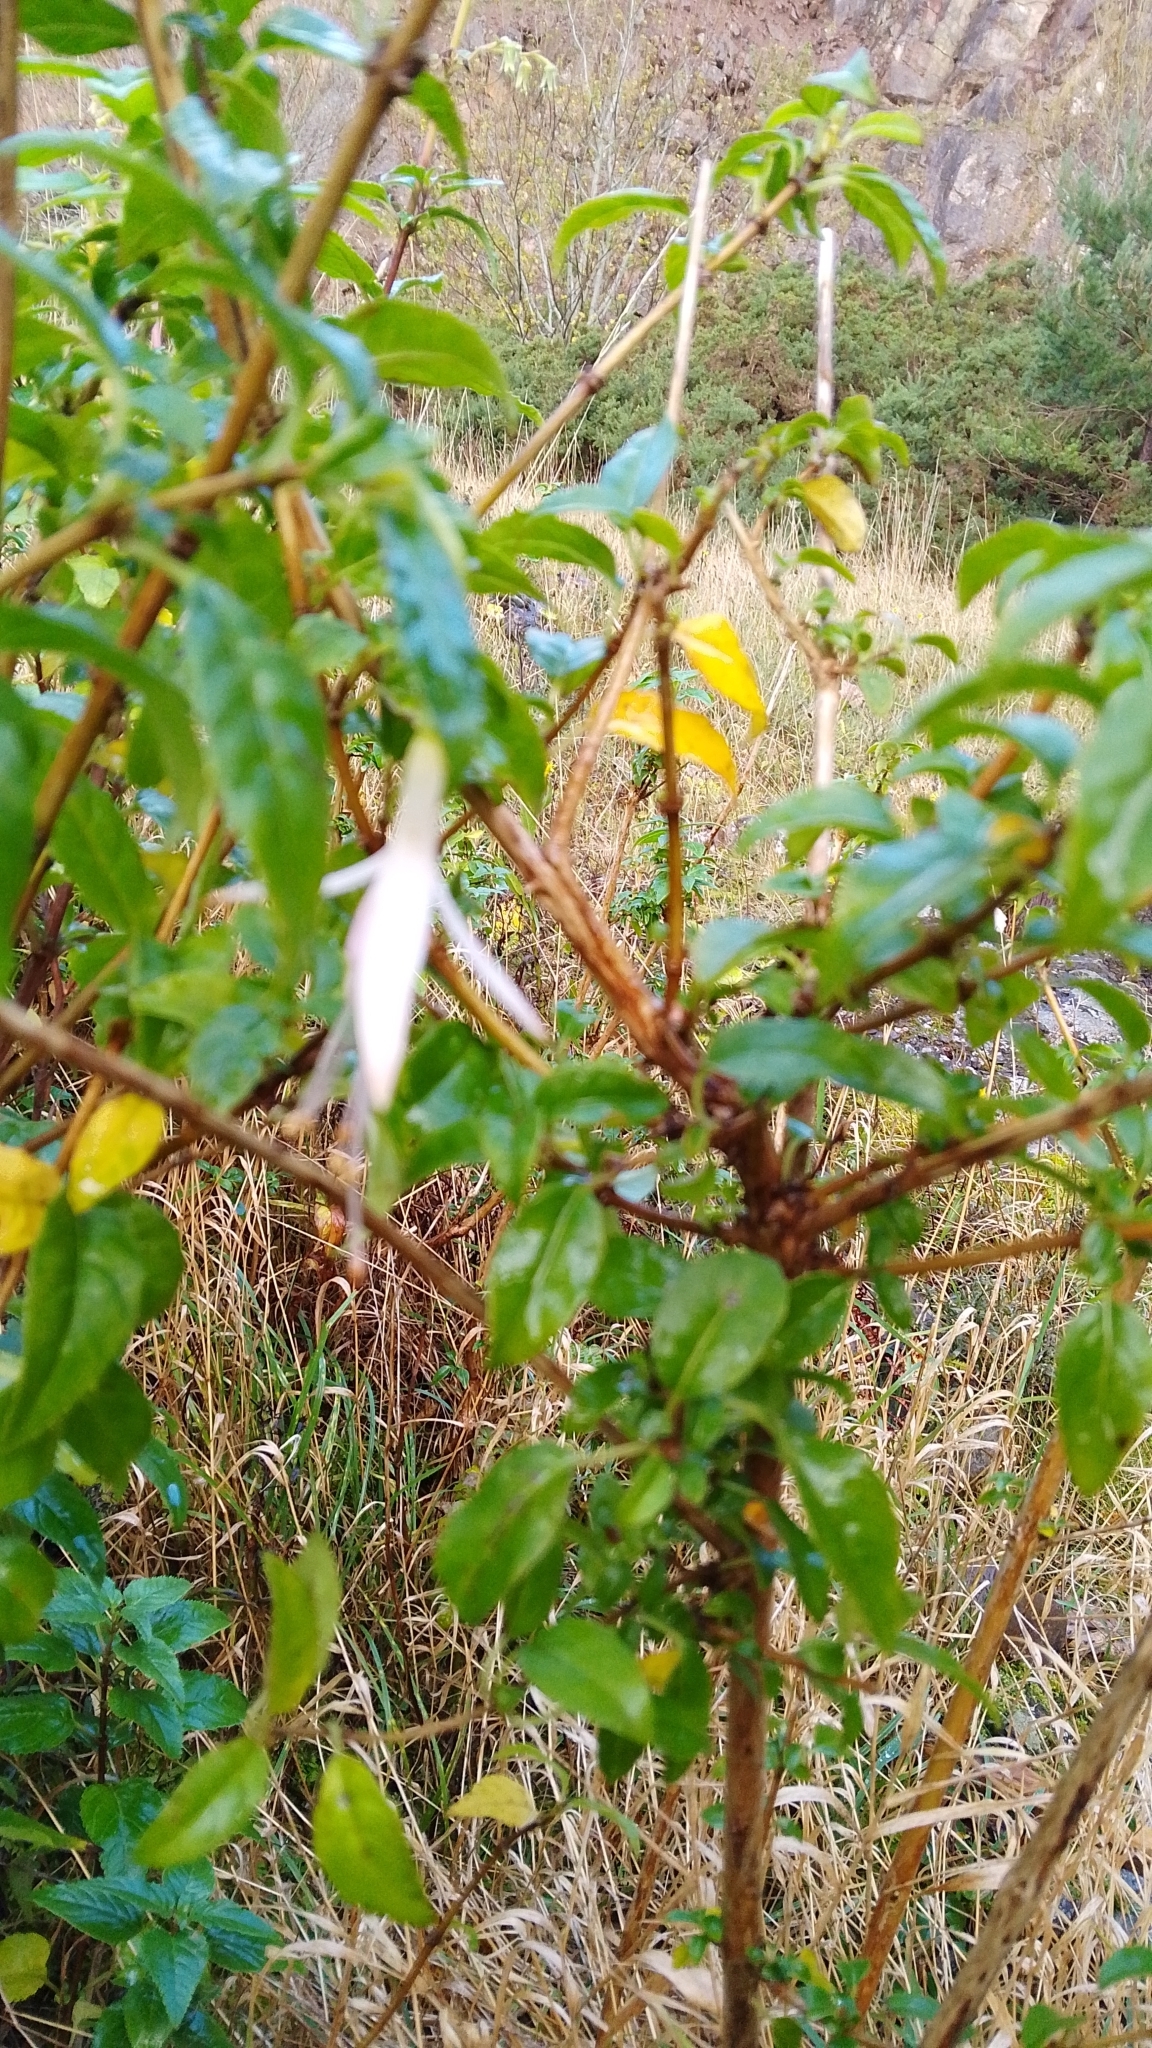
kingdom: Plantae
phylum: Tracheophyta
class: Magnoliopsida
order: Myrtales
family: Onagraceae
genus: Fuchsia
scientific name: Fuchsia magellanica
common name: Hardy fuchsia
